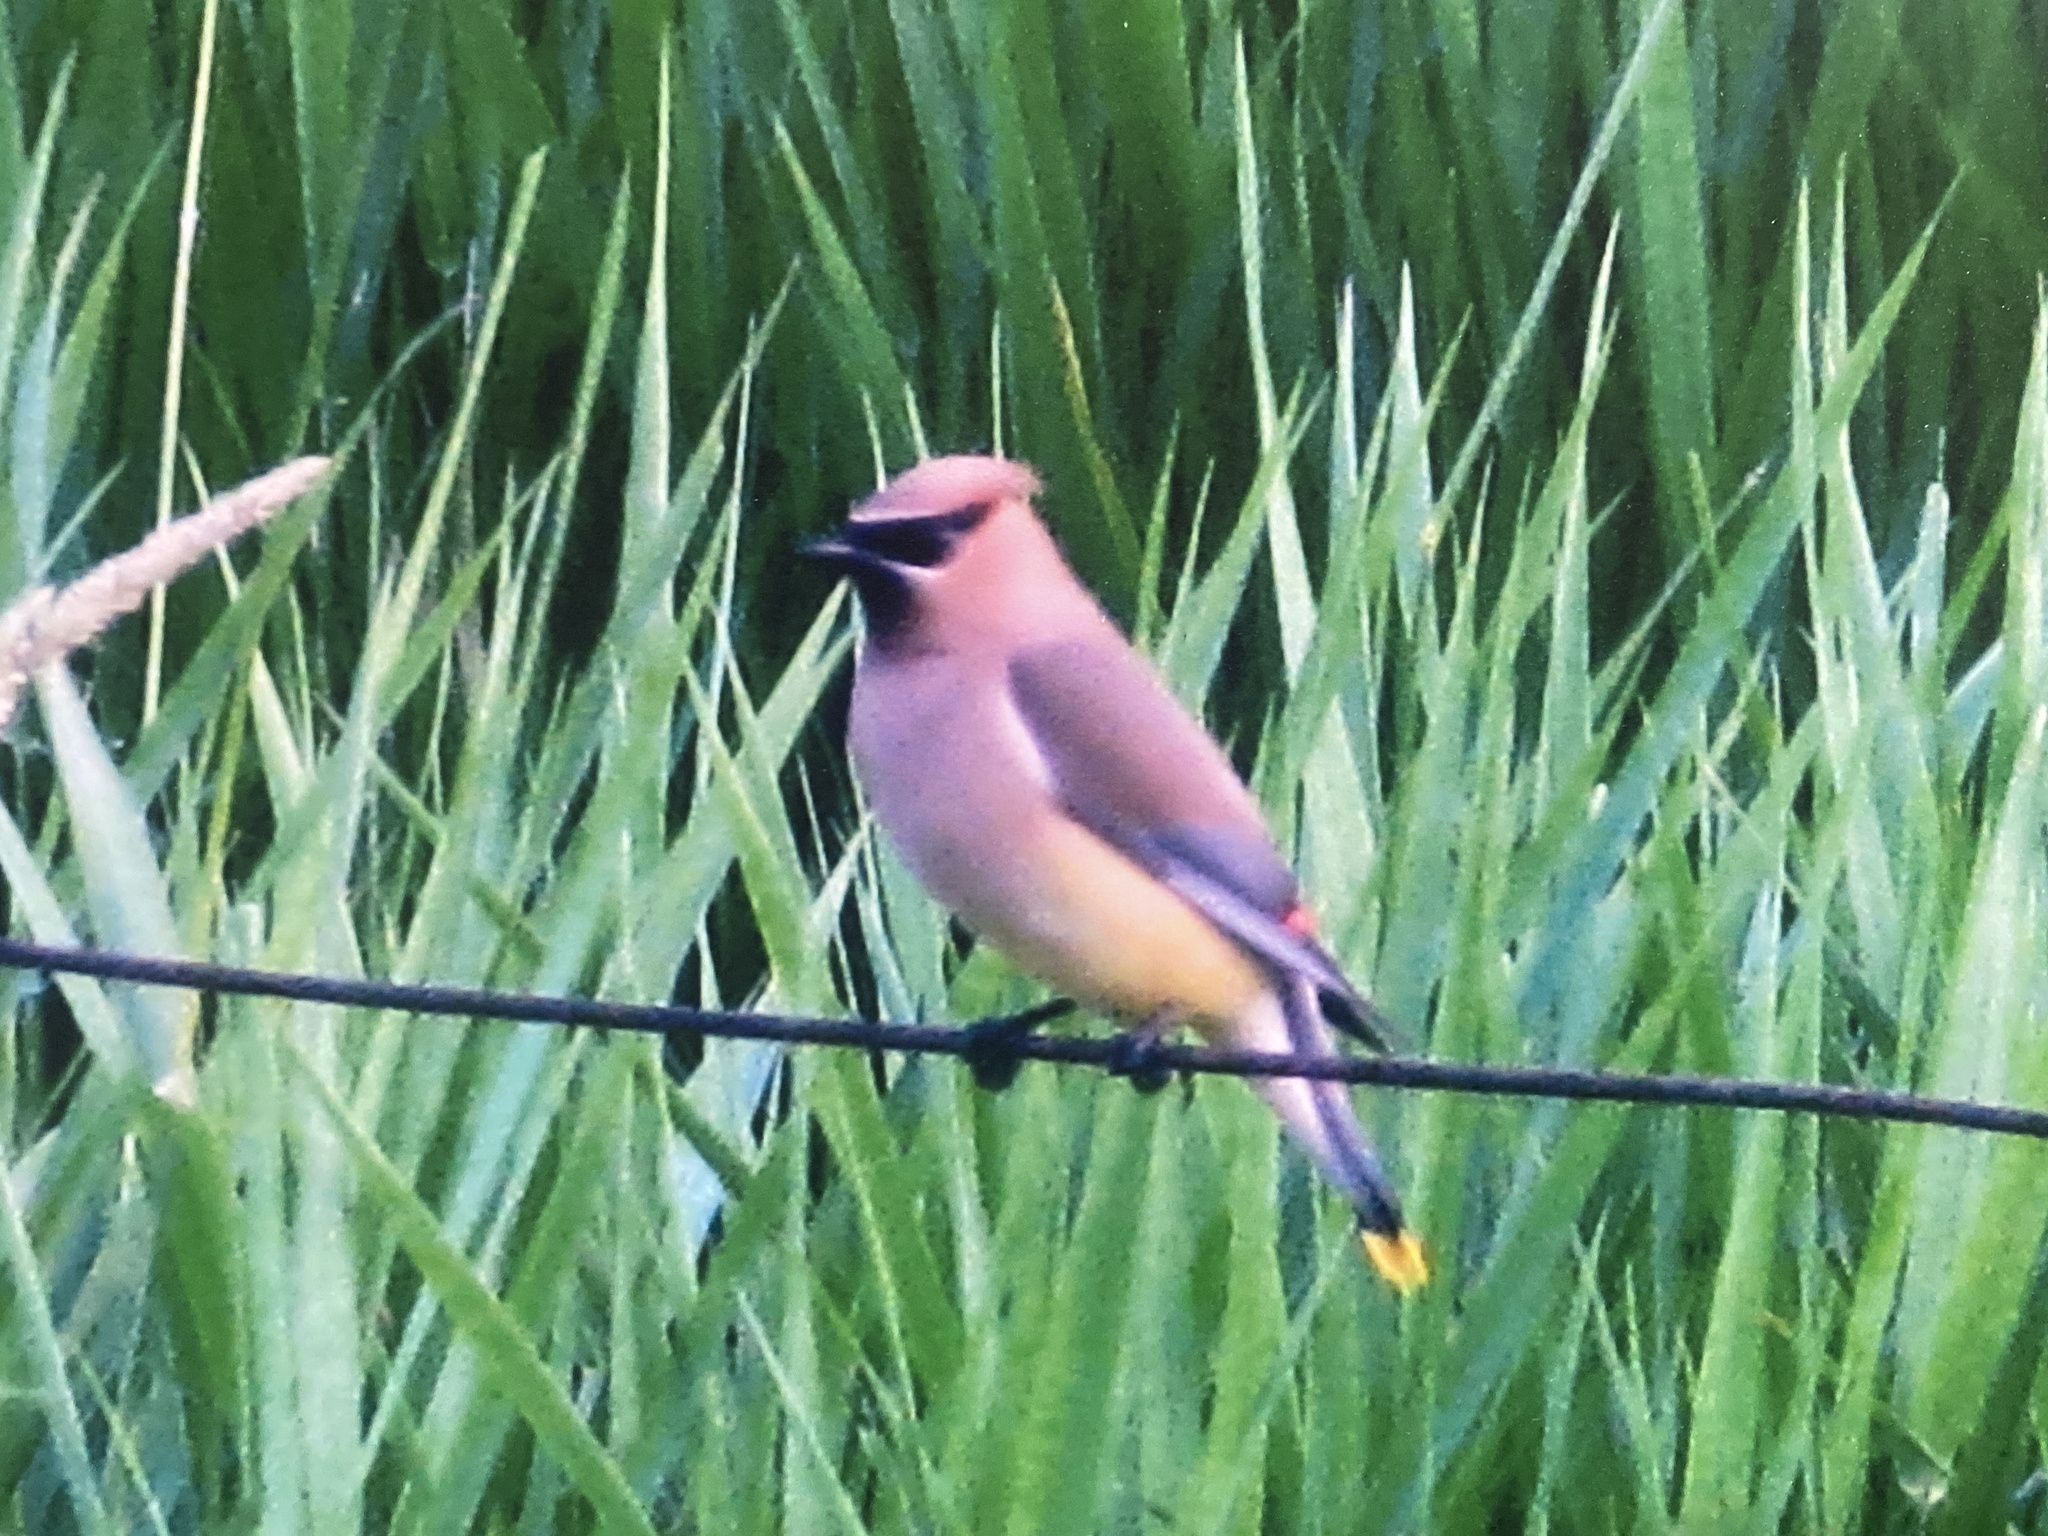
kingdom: Animalia
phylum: Chordata
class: Aves
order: Passeriformes
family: Bombycillidae
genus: Bombycilla
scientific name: Bombycilla cedrorum
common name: Cedar waxwing
